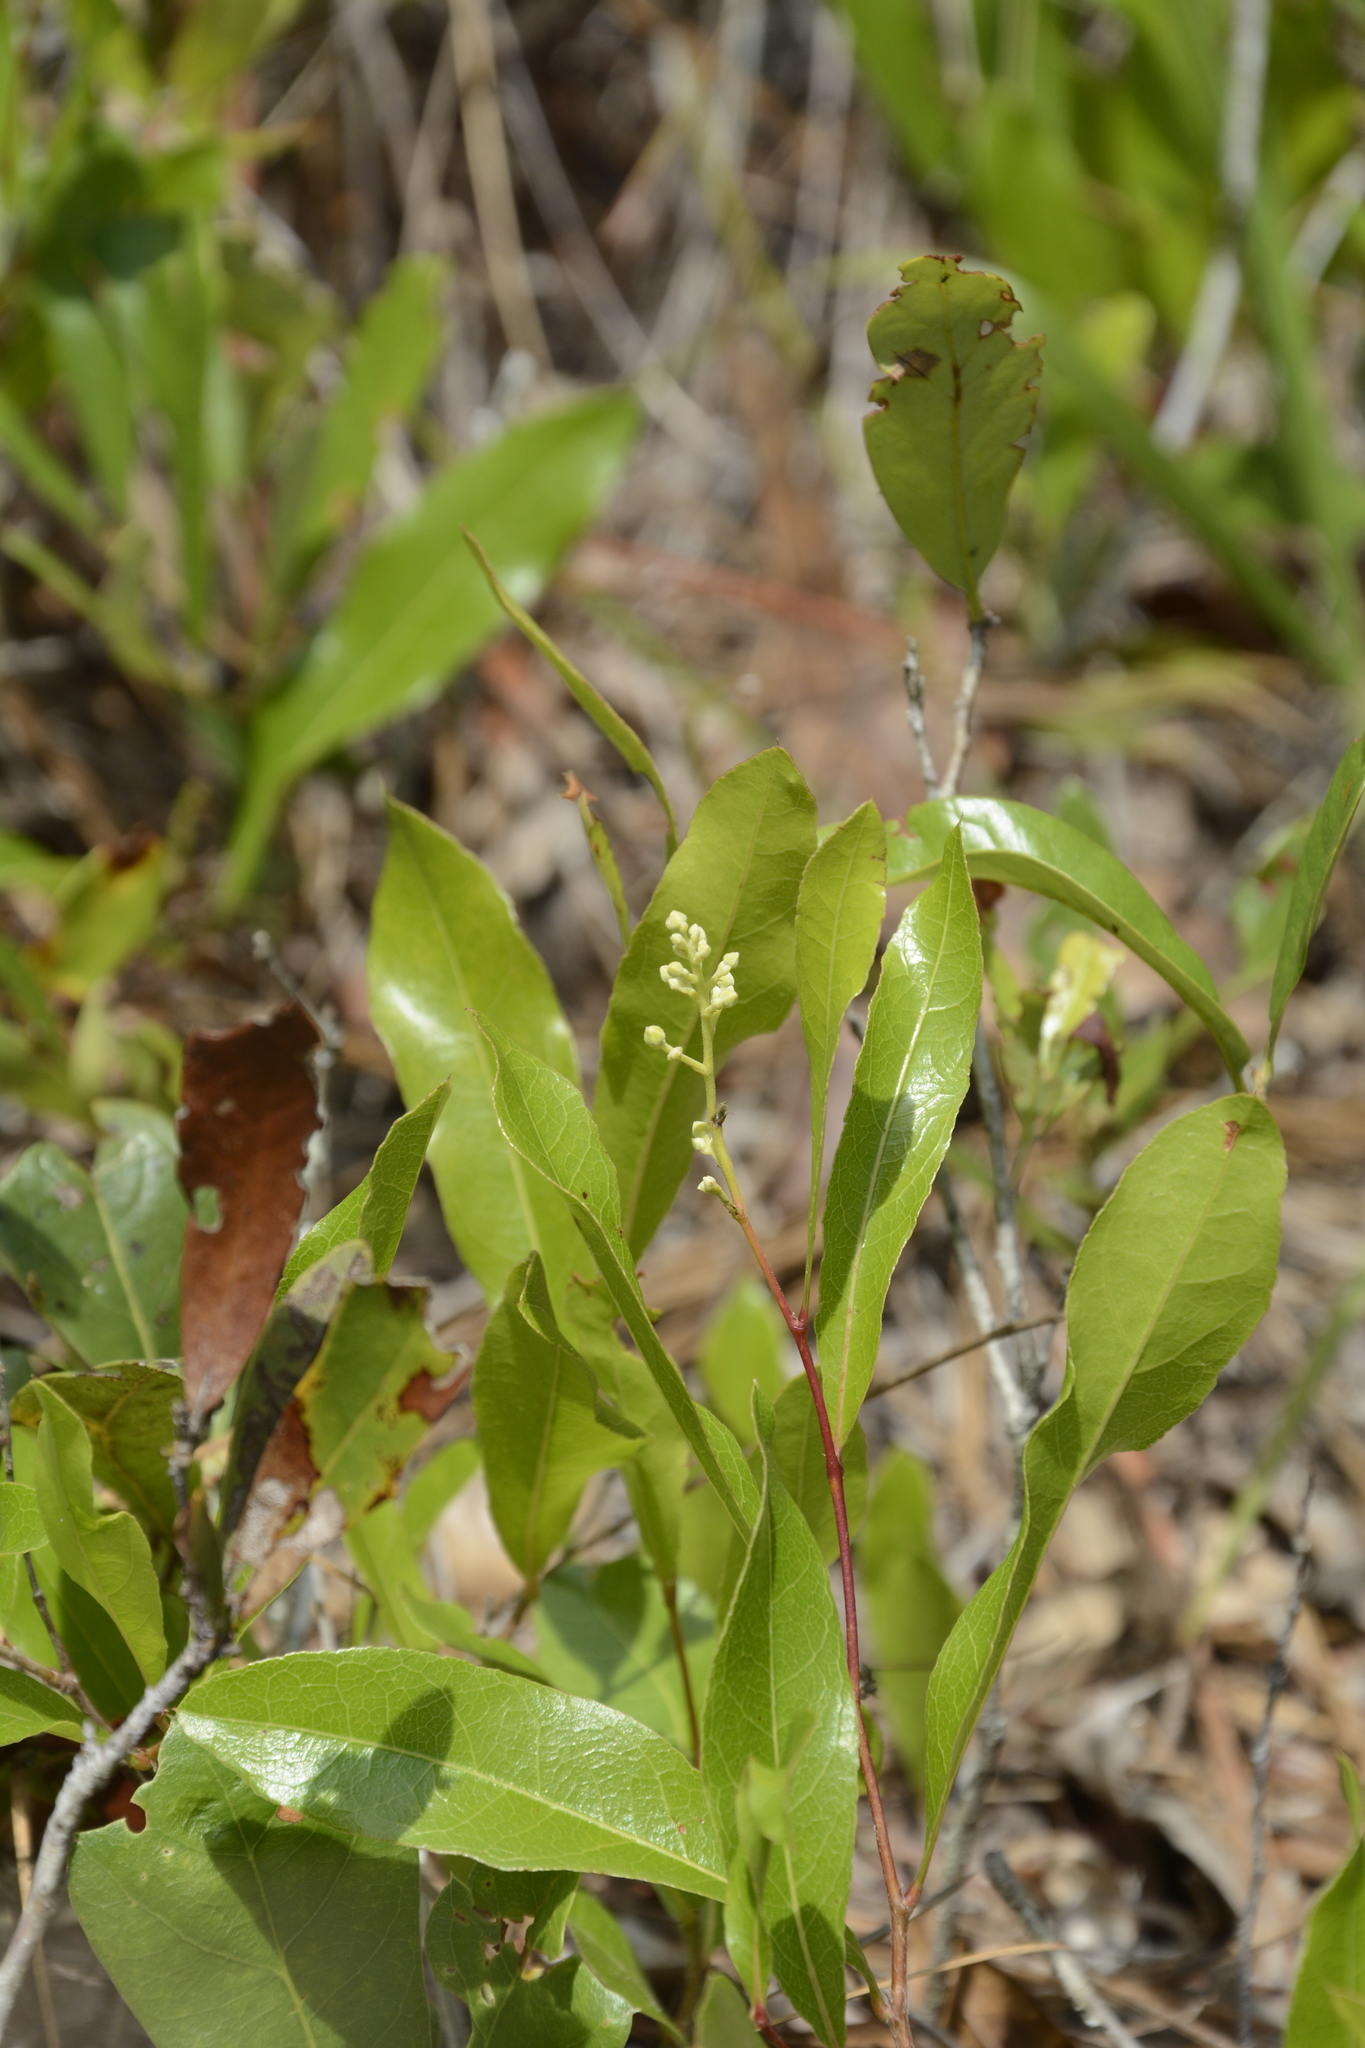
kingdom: Plantae
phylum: Tracheophyta
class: Magnoliopsida
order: Malpighiales
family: Chrysobalanaceae
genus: Geobalanus
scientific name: Geobalanus oblongifolius
